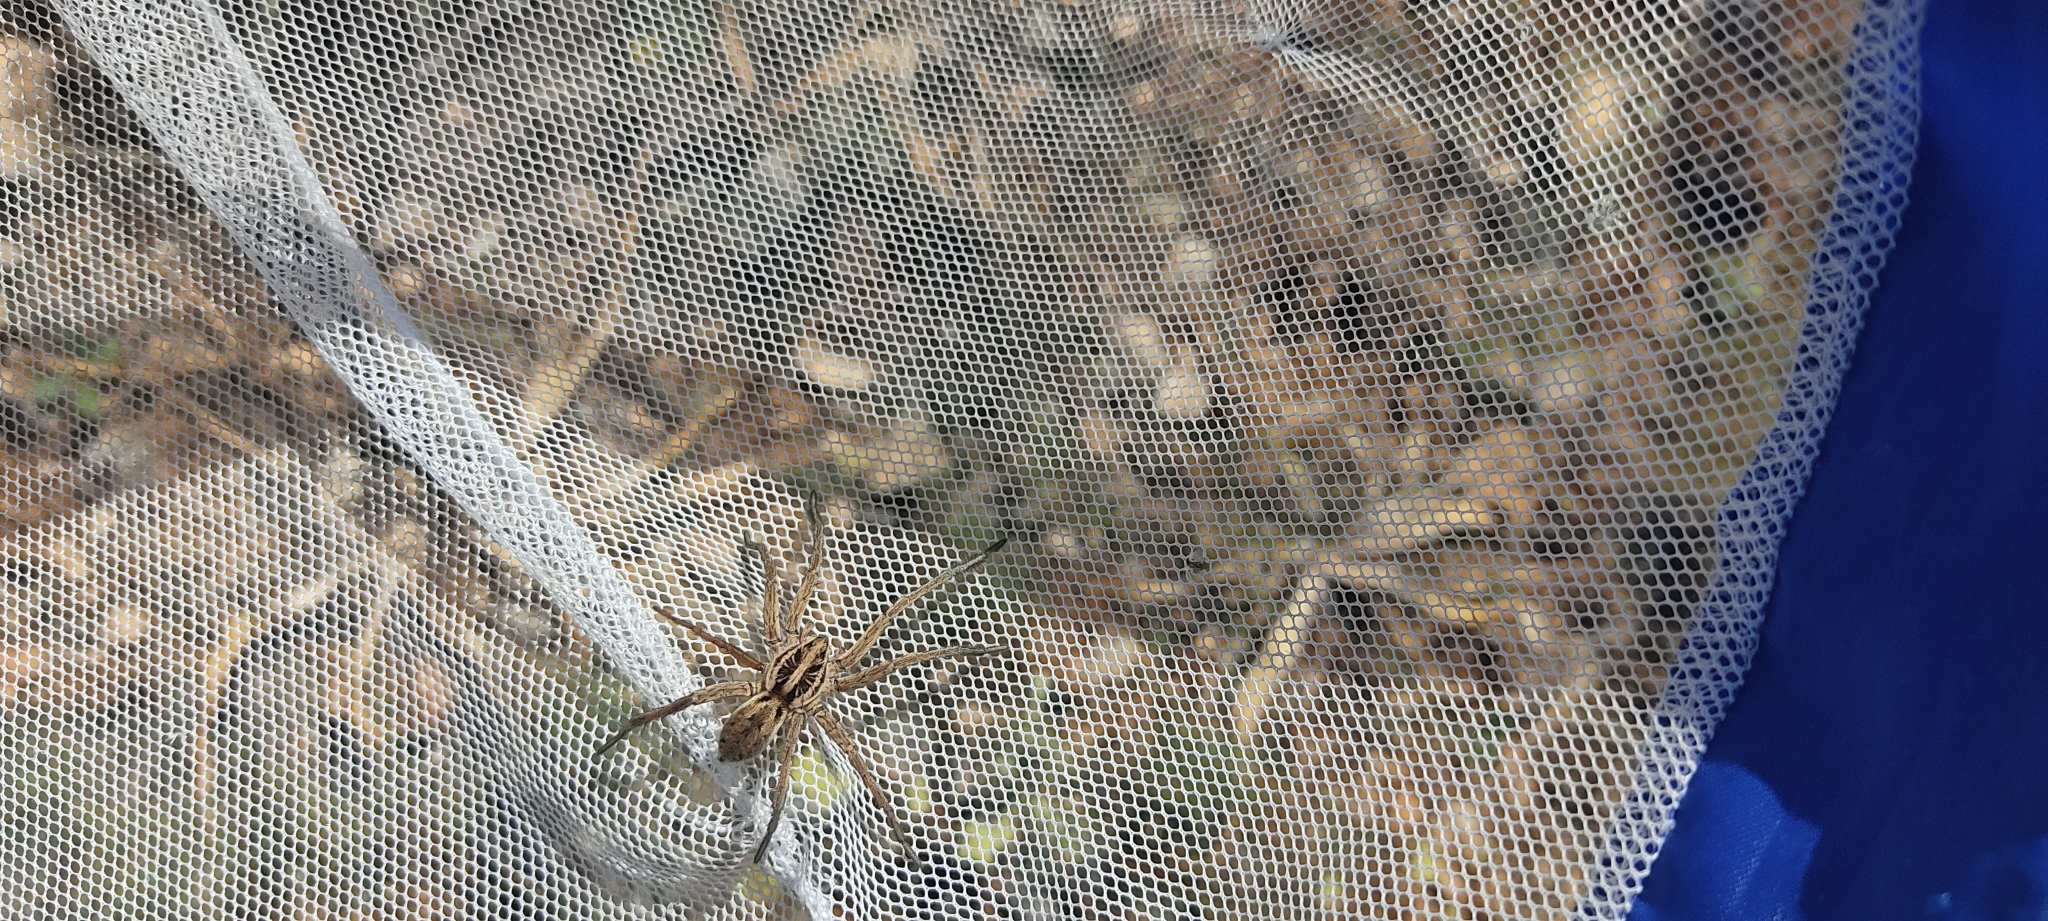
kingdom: Animalia
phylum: Arthropoda
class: Arachnida
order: Araneae
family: Lycosidae
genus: Hogna
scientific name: Hogna radiata
